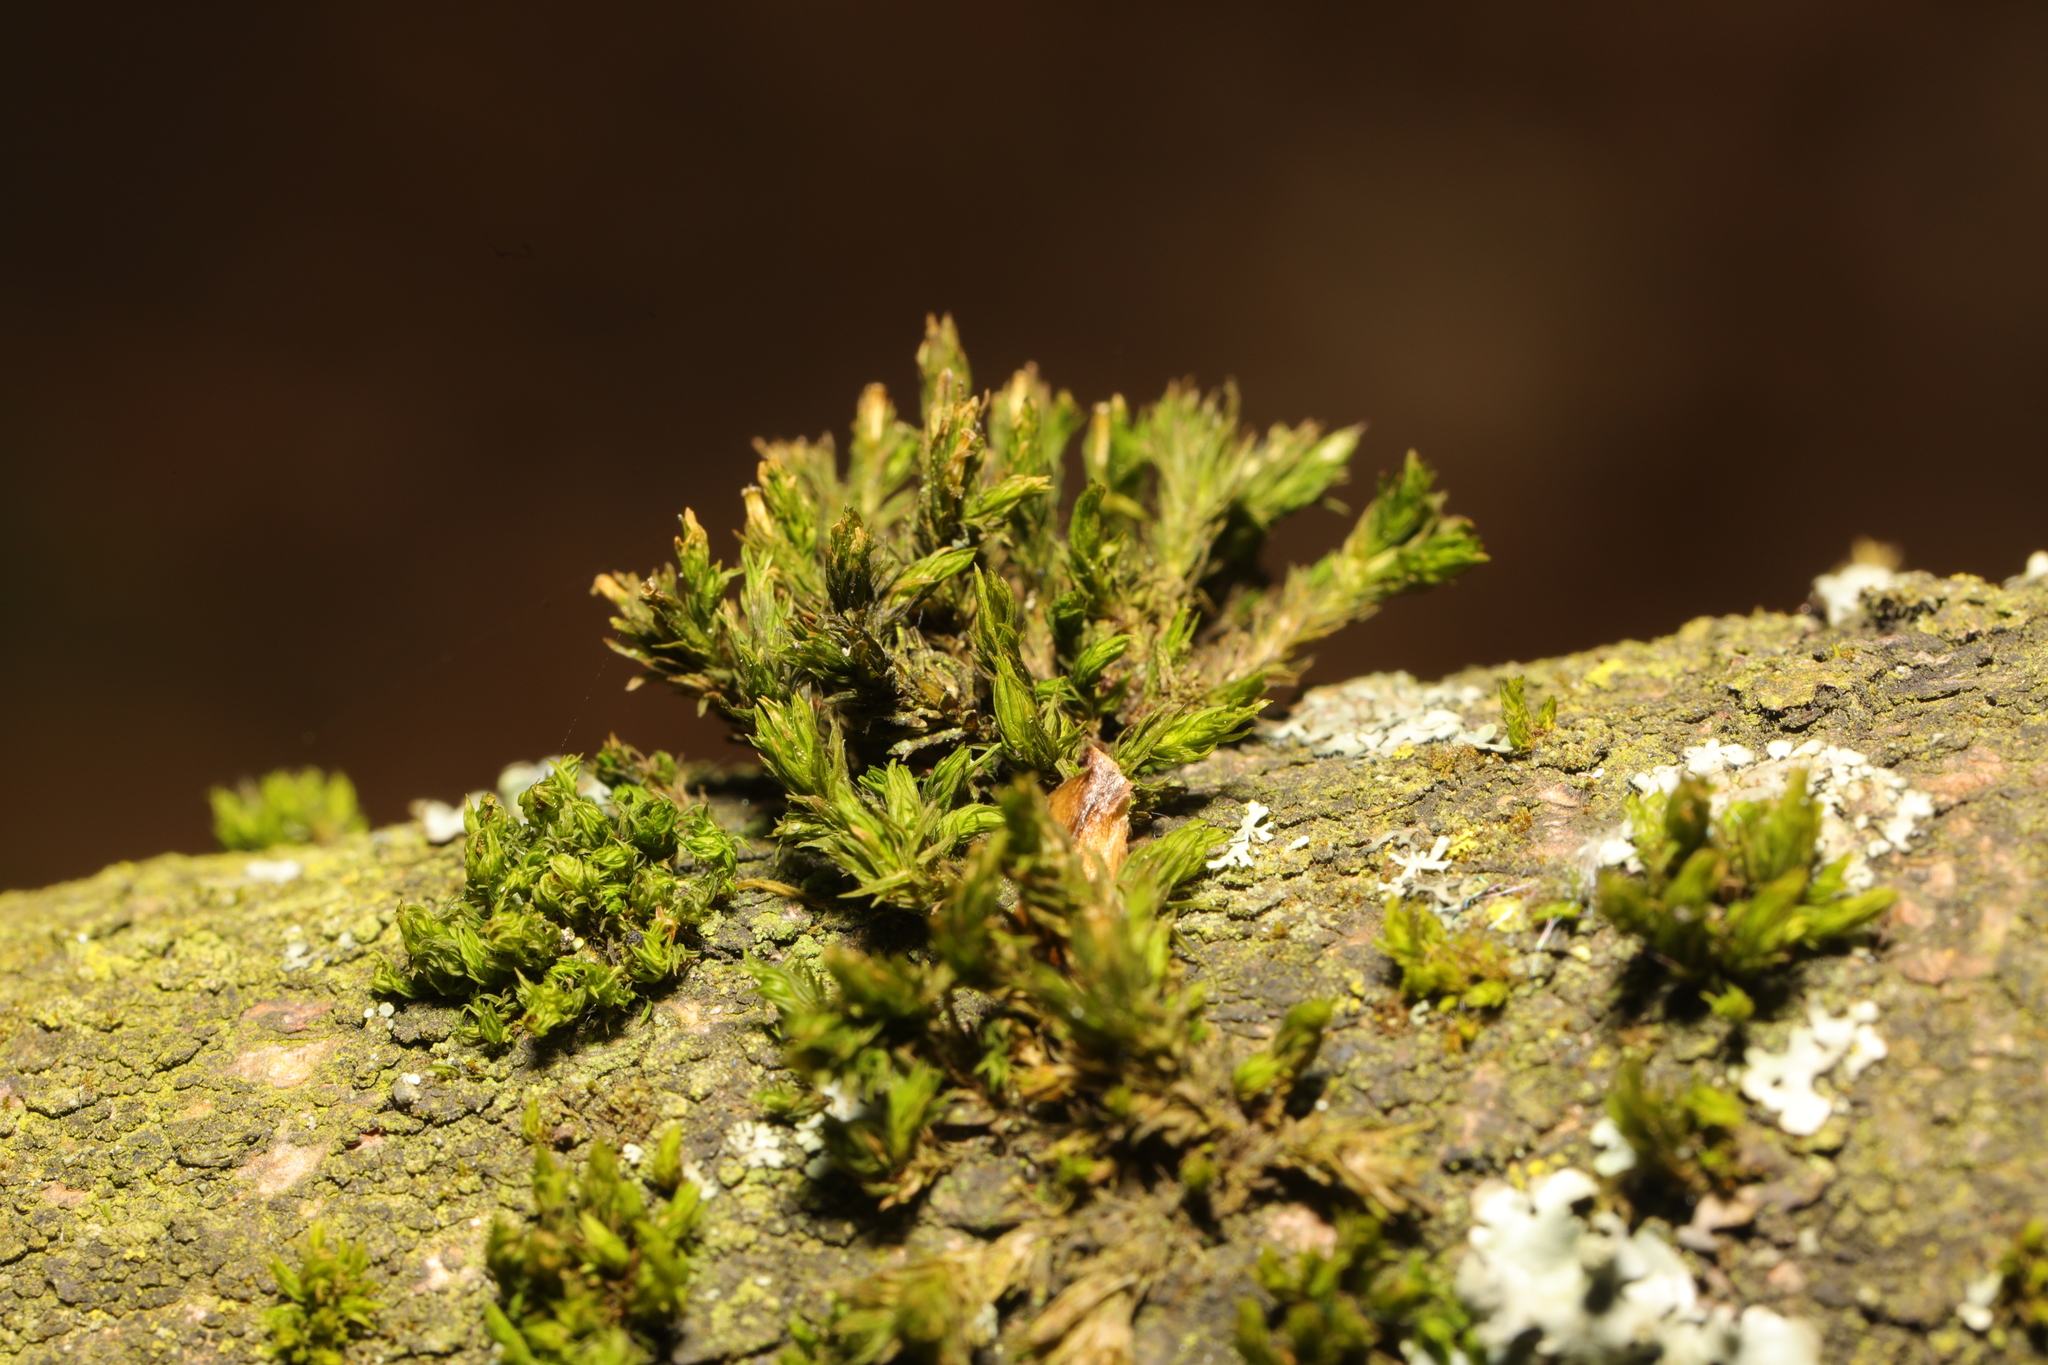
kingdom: Plantae
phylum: Bryophyta
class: Bryopsida
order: Orthotrichales
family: Orthotrichaceae
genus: Lewinskya
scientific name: Lewinskya affinis
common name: Wood bristle-moss
